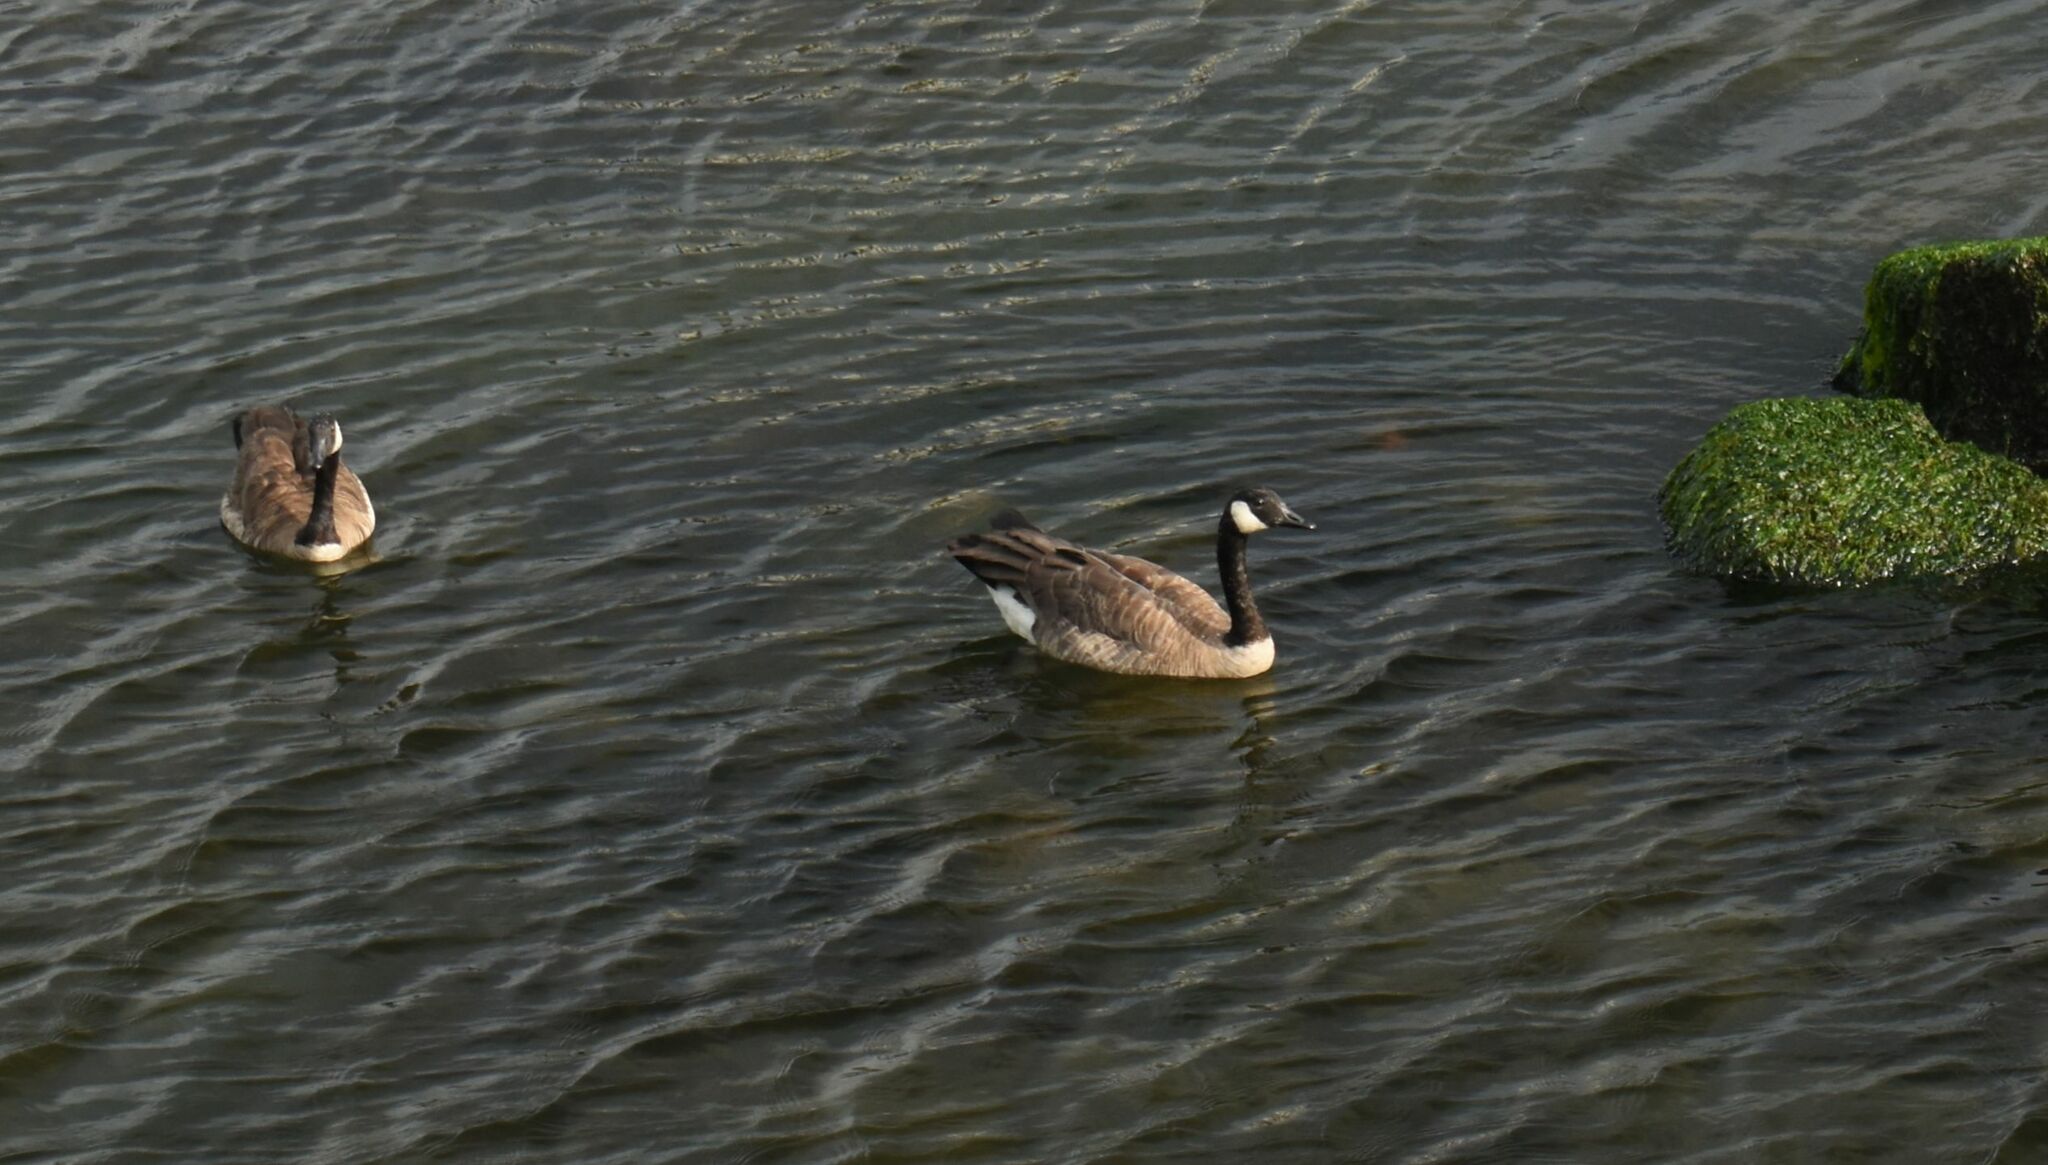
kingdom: Animalia
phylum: Chordata
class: Aves
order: Anseriformes
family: Anatidae
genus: Branta
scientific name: Branta canadensis
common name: Canada goose
